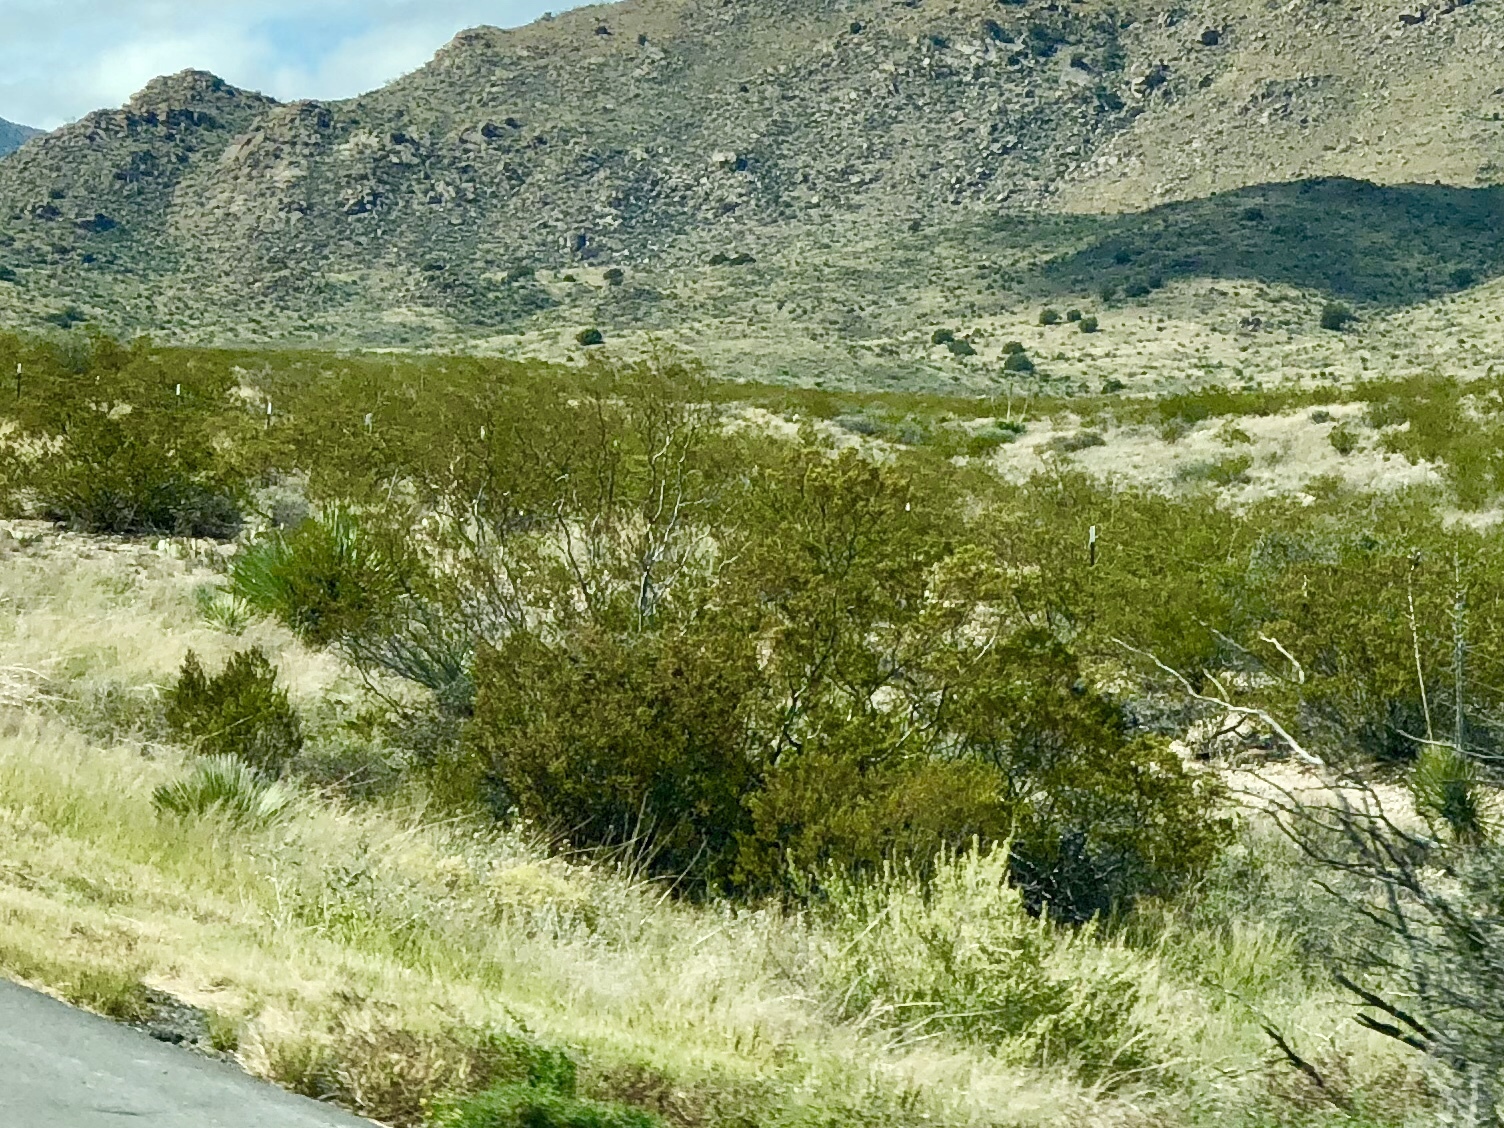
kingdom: Plantae
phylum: Tracheophyta
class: Magnoliopsida
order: Zygophyllales
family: Zygophyllaceae
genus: Larrea
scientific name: Larrea tridentata
